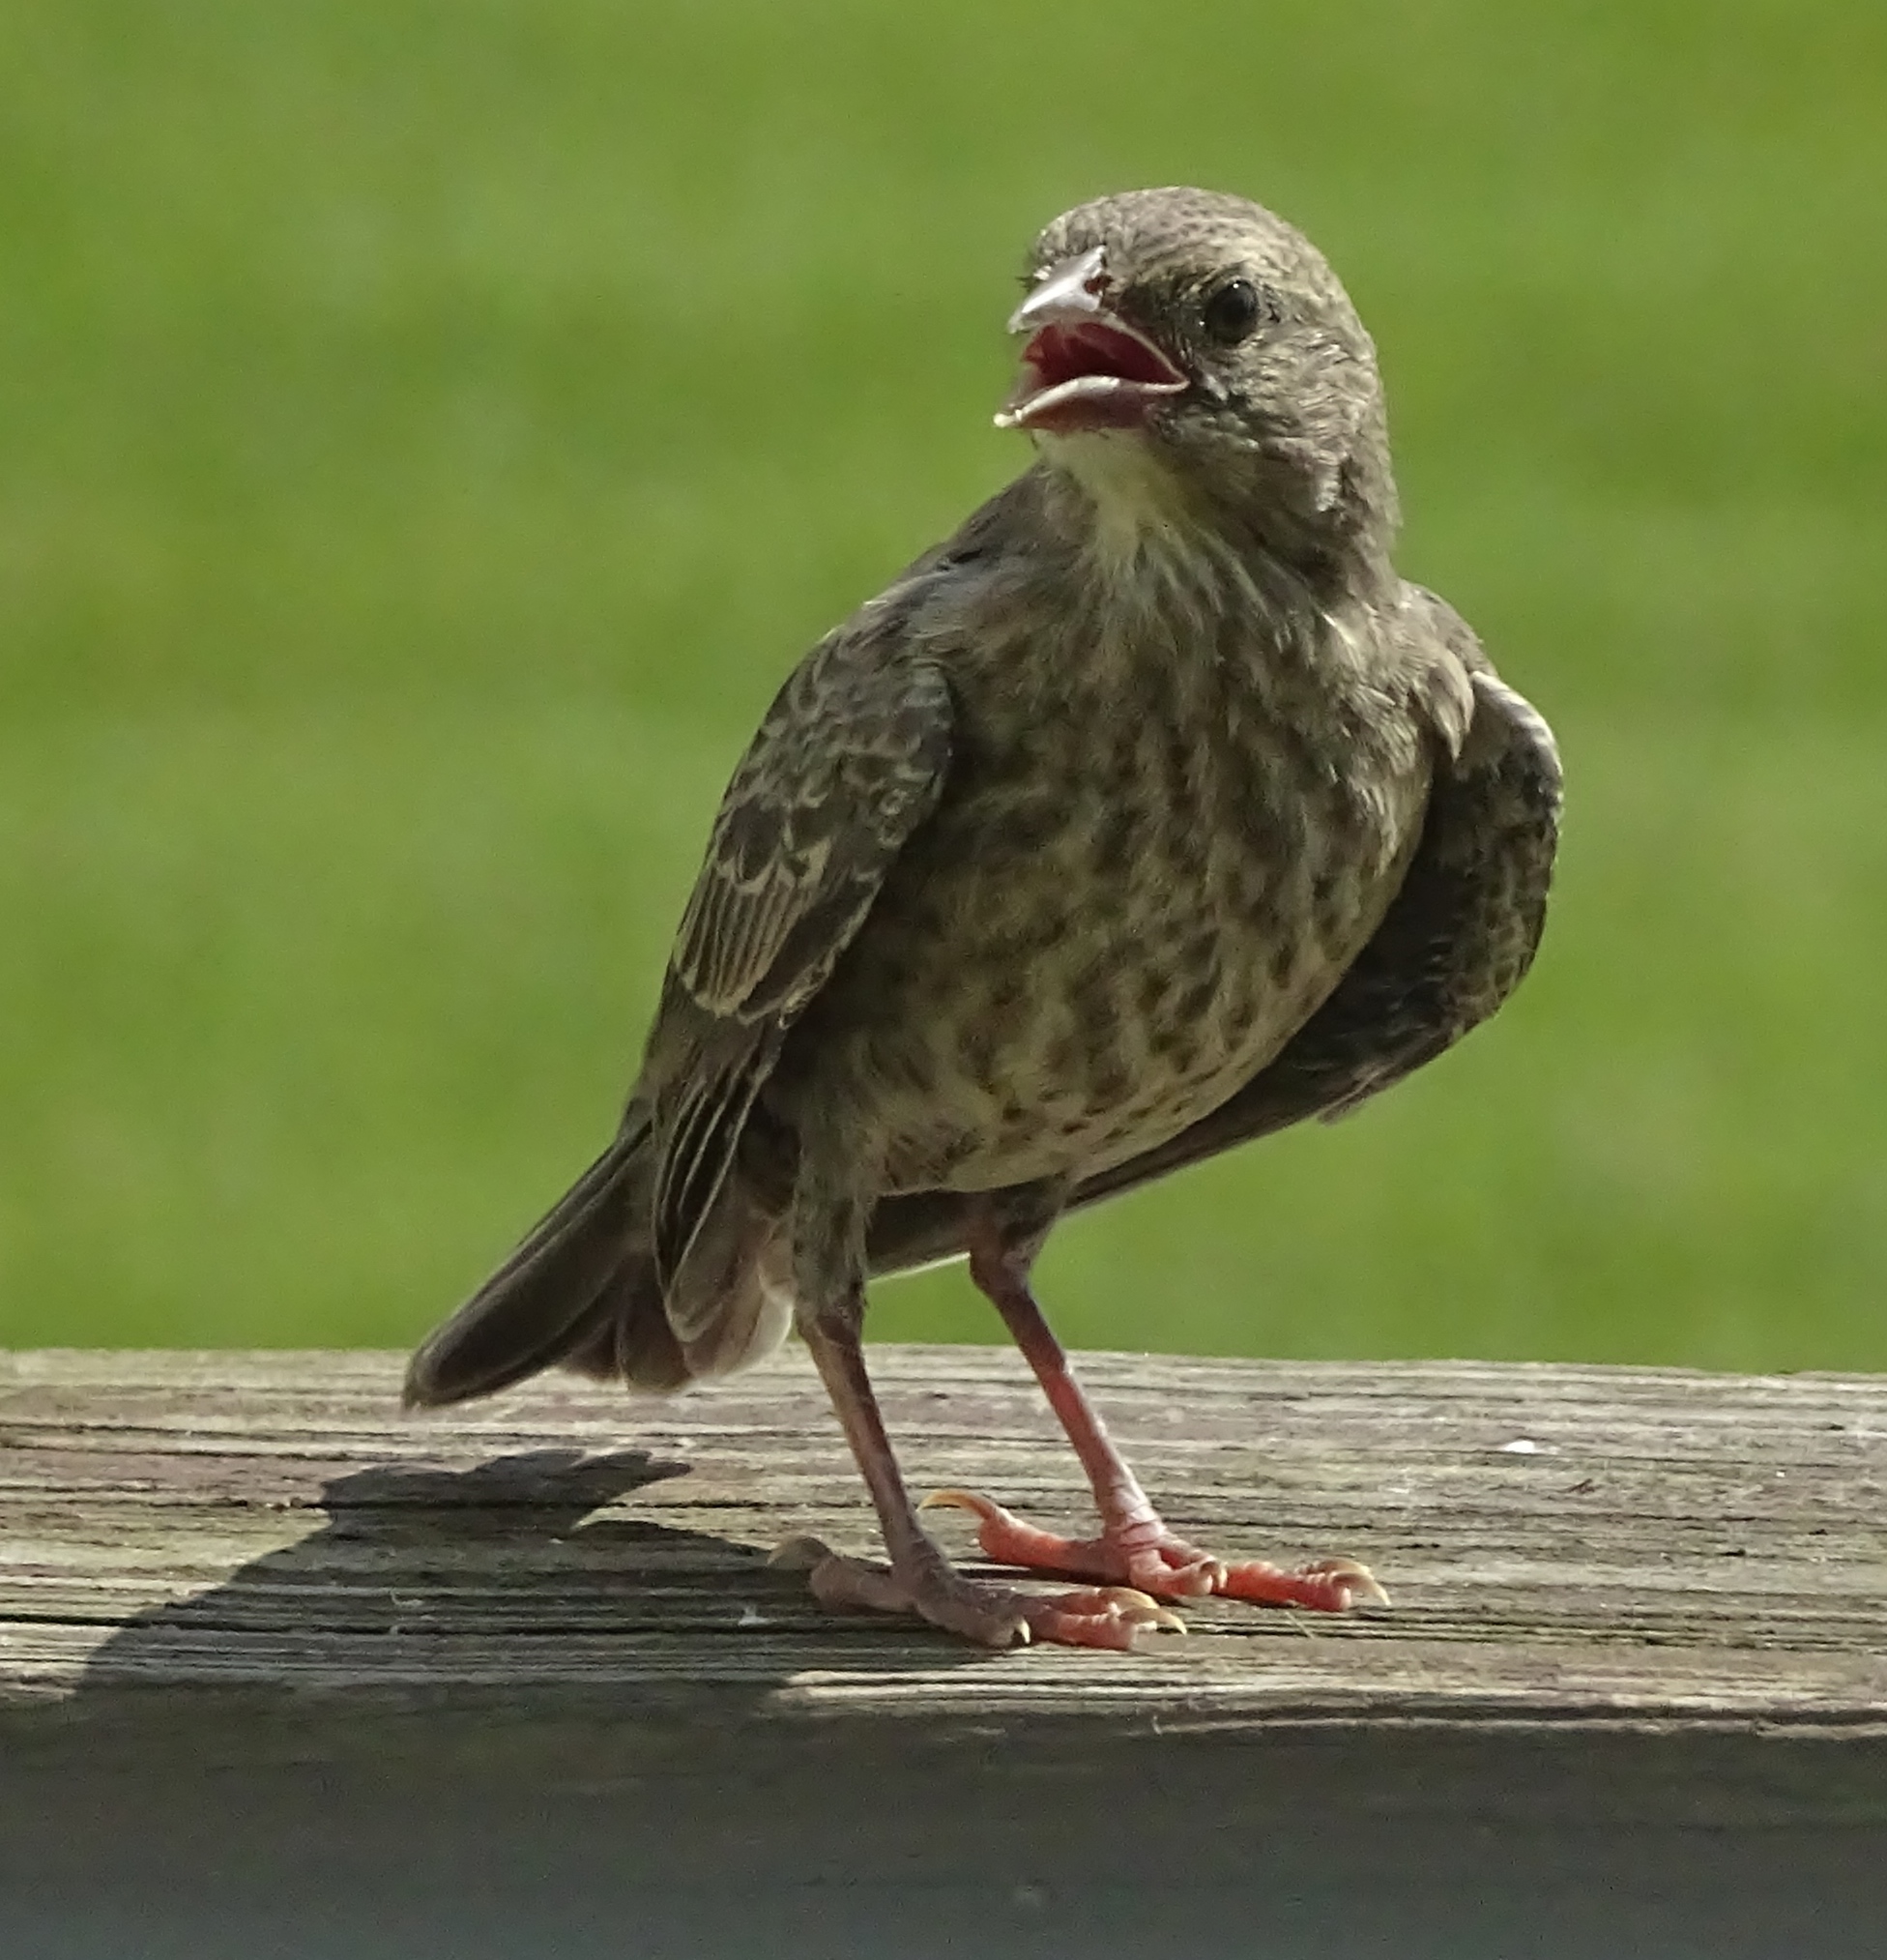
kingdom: Animalia
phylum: Chordata
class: Aves
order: Passeriformes
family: Icteridae
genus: Molothrus
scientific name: Molothrus ater
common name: Brown-headed cowbird
